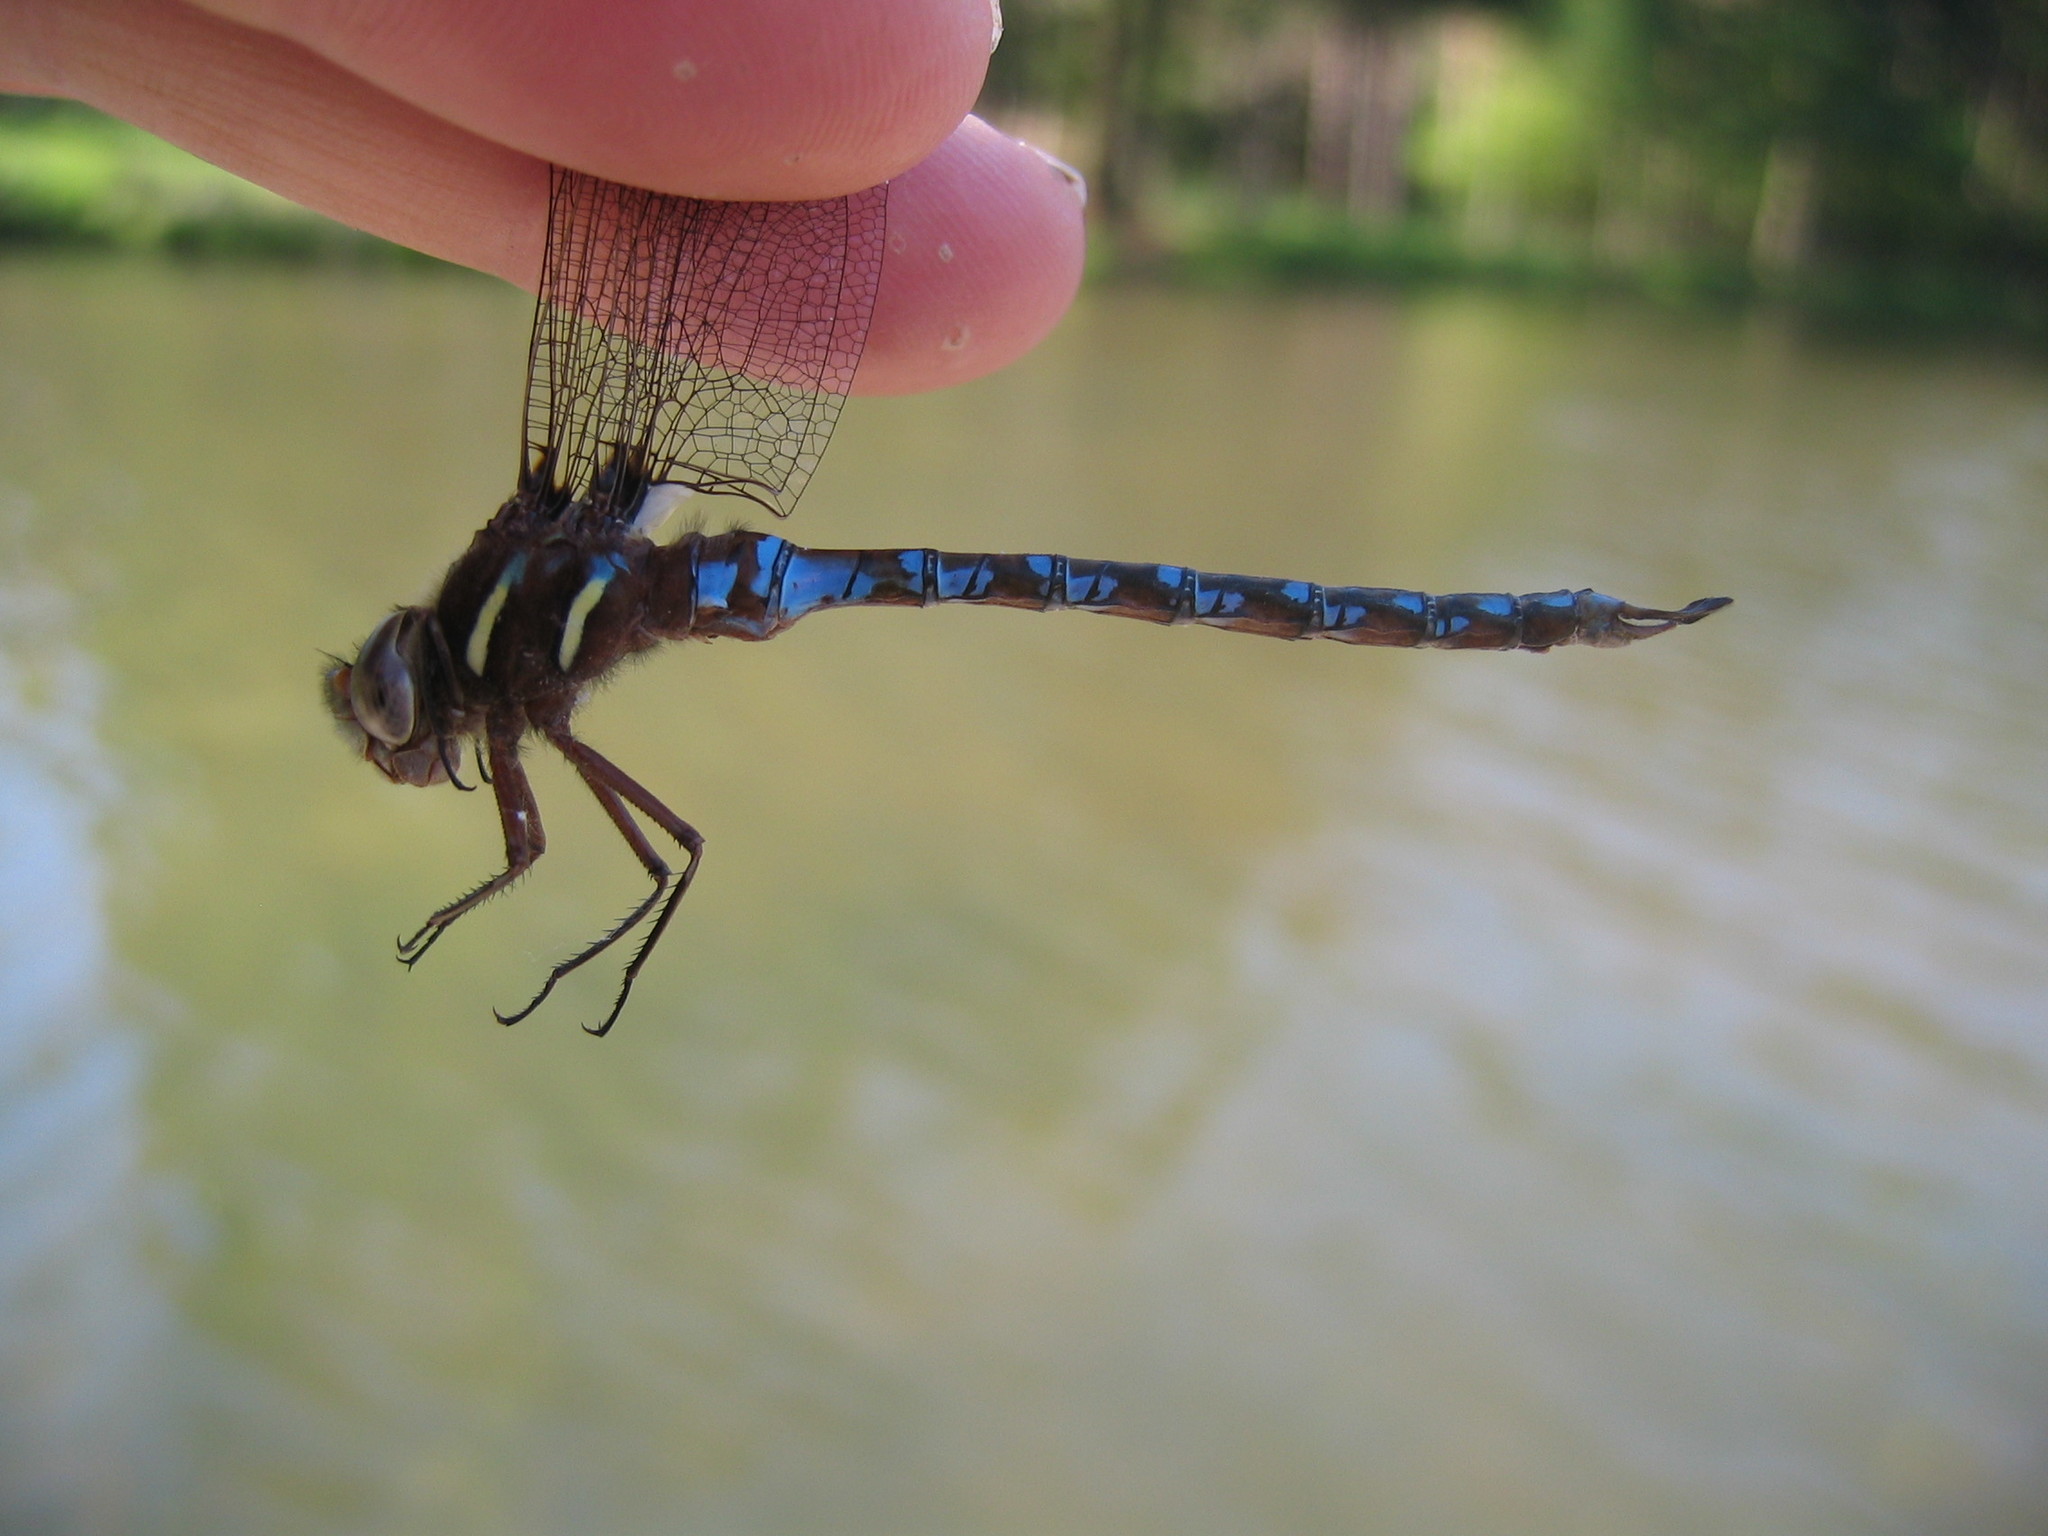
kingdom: Animalia
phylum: Arthropoda
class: Insecta
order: Odonata
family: Aeshnidae
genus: Basiaeschna
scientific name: Basiaeschna janata
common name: Springtime darner
